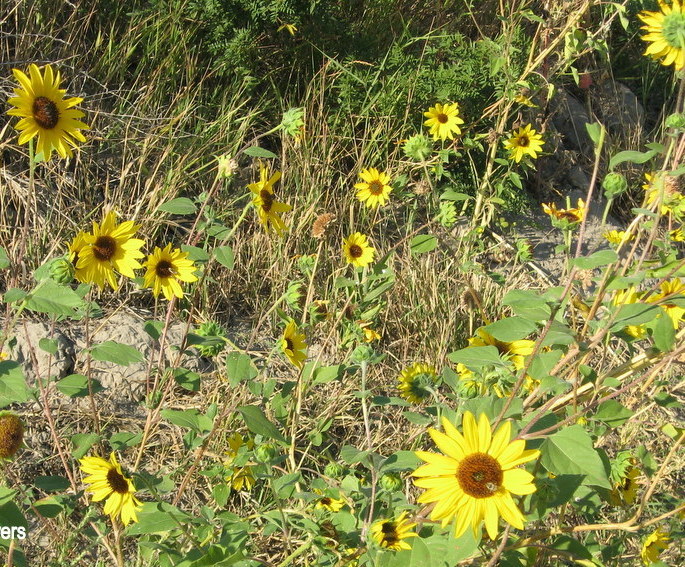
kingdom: Plantae
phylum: Tracheophyta
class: Magnoliopsida
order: Asterales
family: Asteraceae
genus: Helianthus
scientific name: Helianthus annuus
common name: Sunflower
